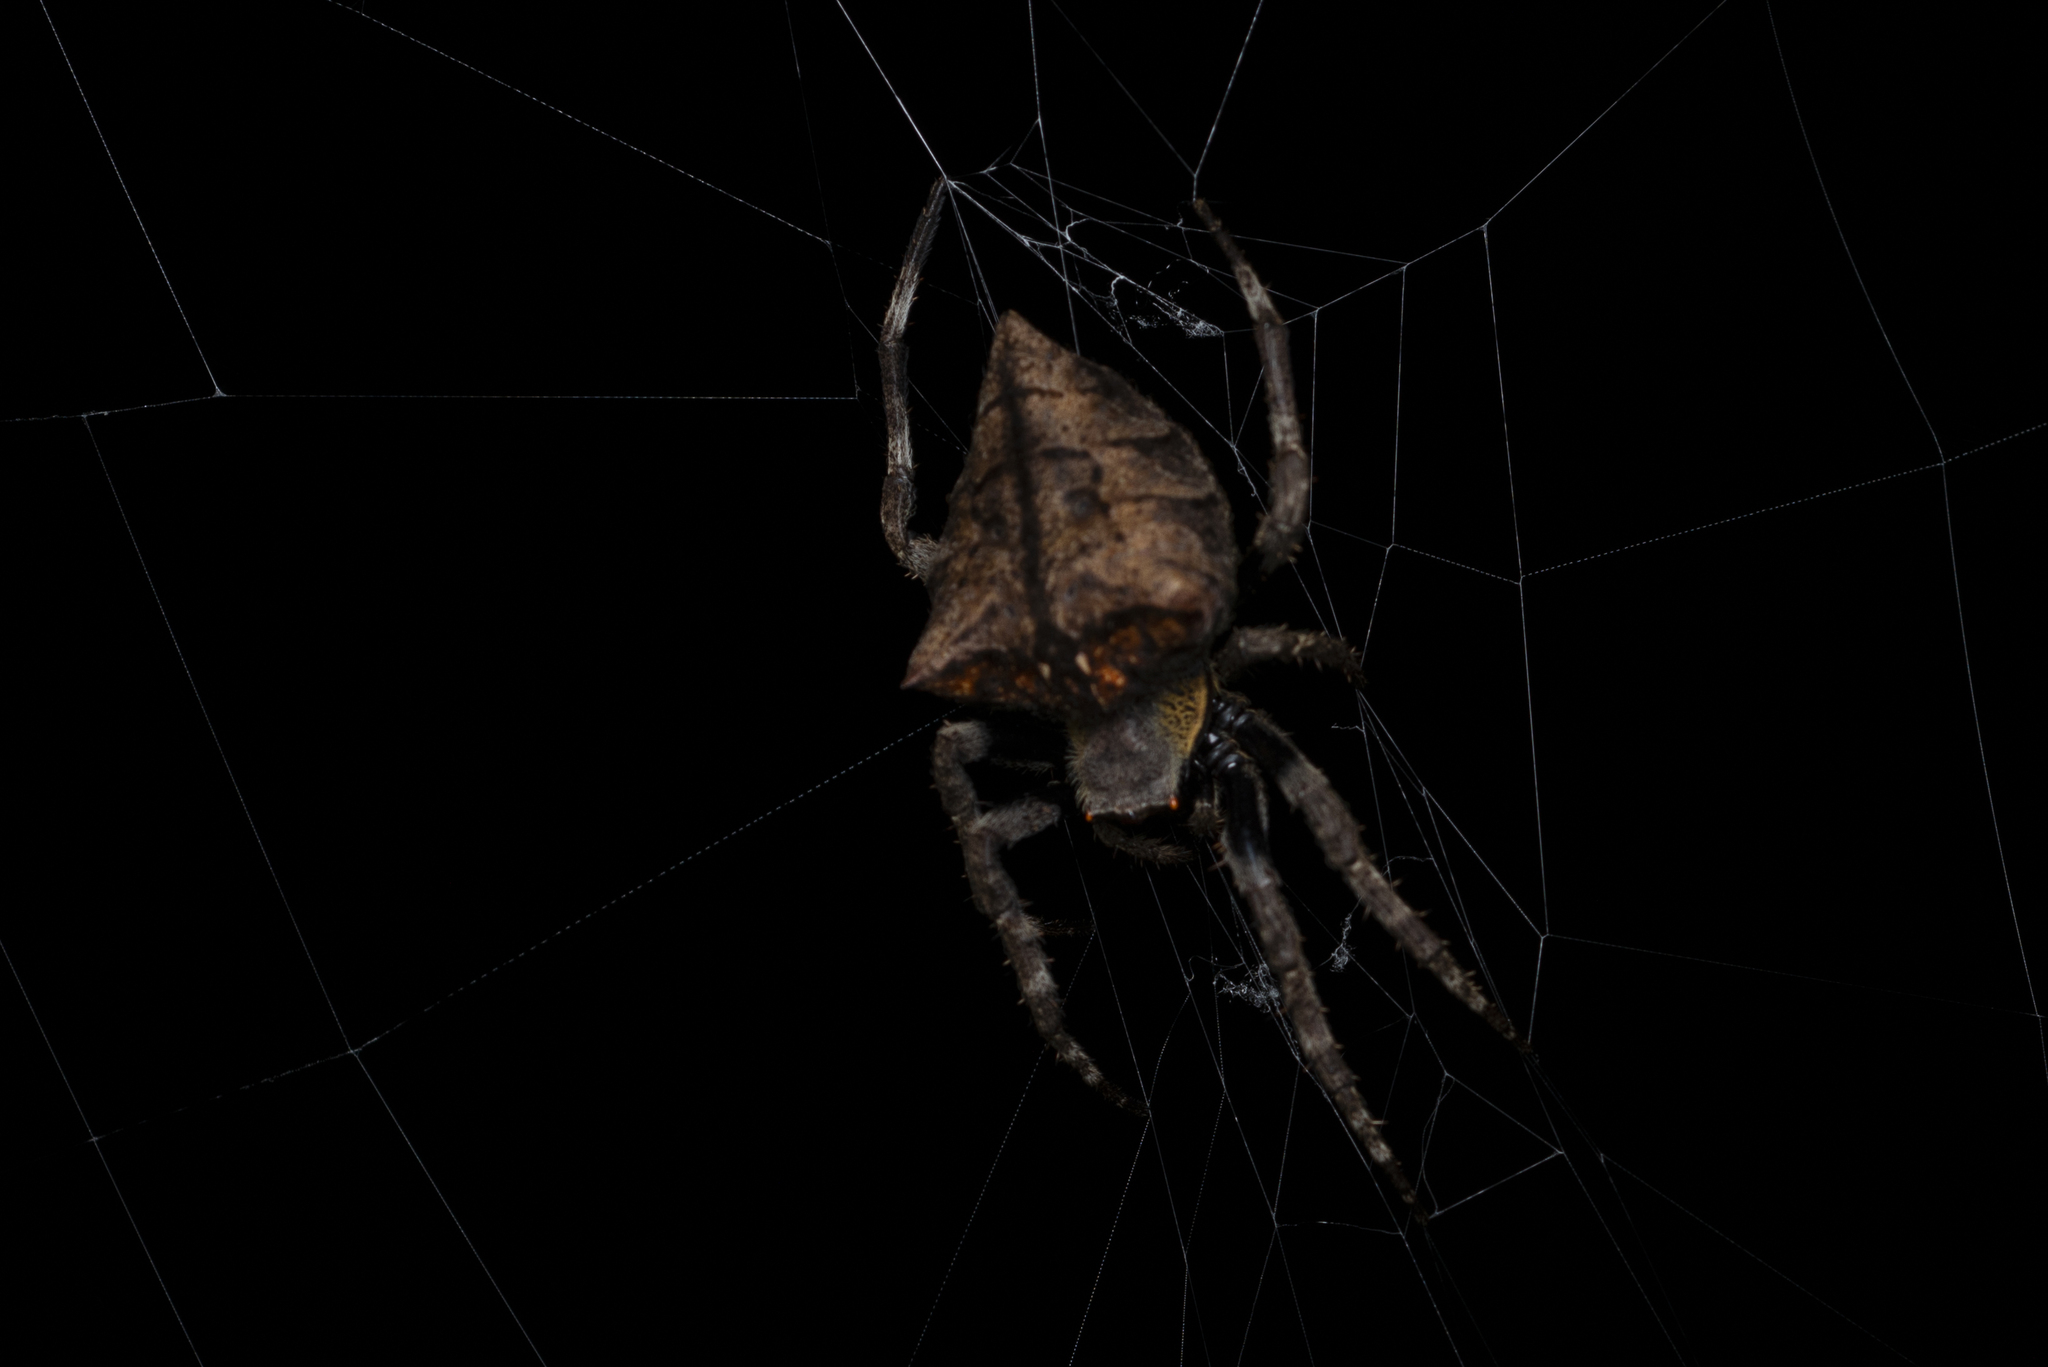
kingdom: Animalia
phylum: Arthropoda
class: Arachnida
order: Araneae
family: Araneidae
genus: Parawixia
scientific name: Parawixia dehaani
